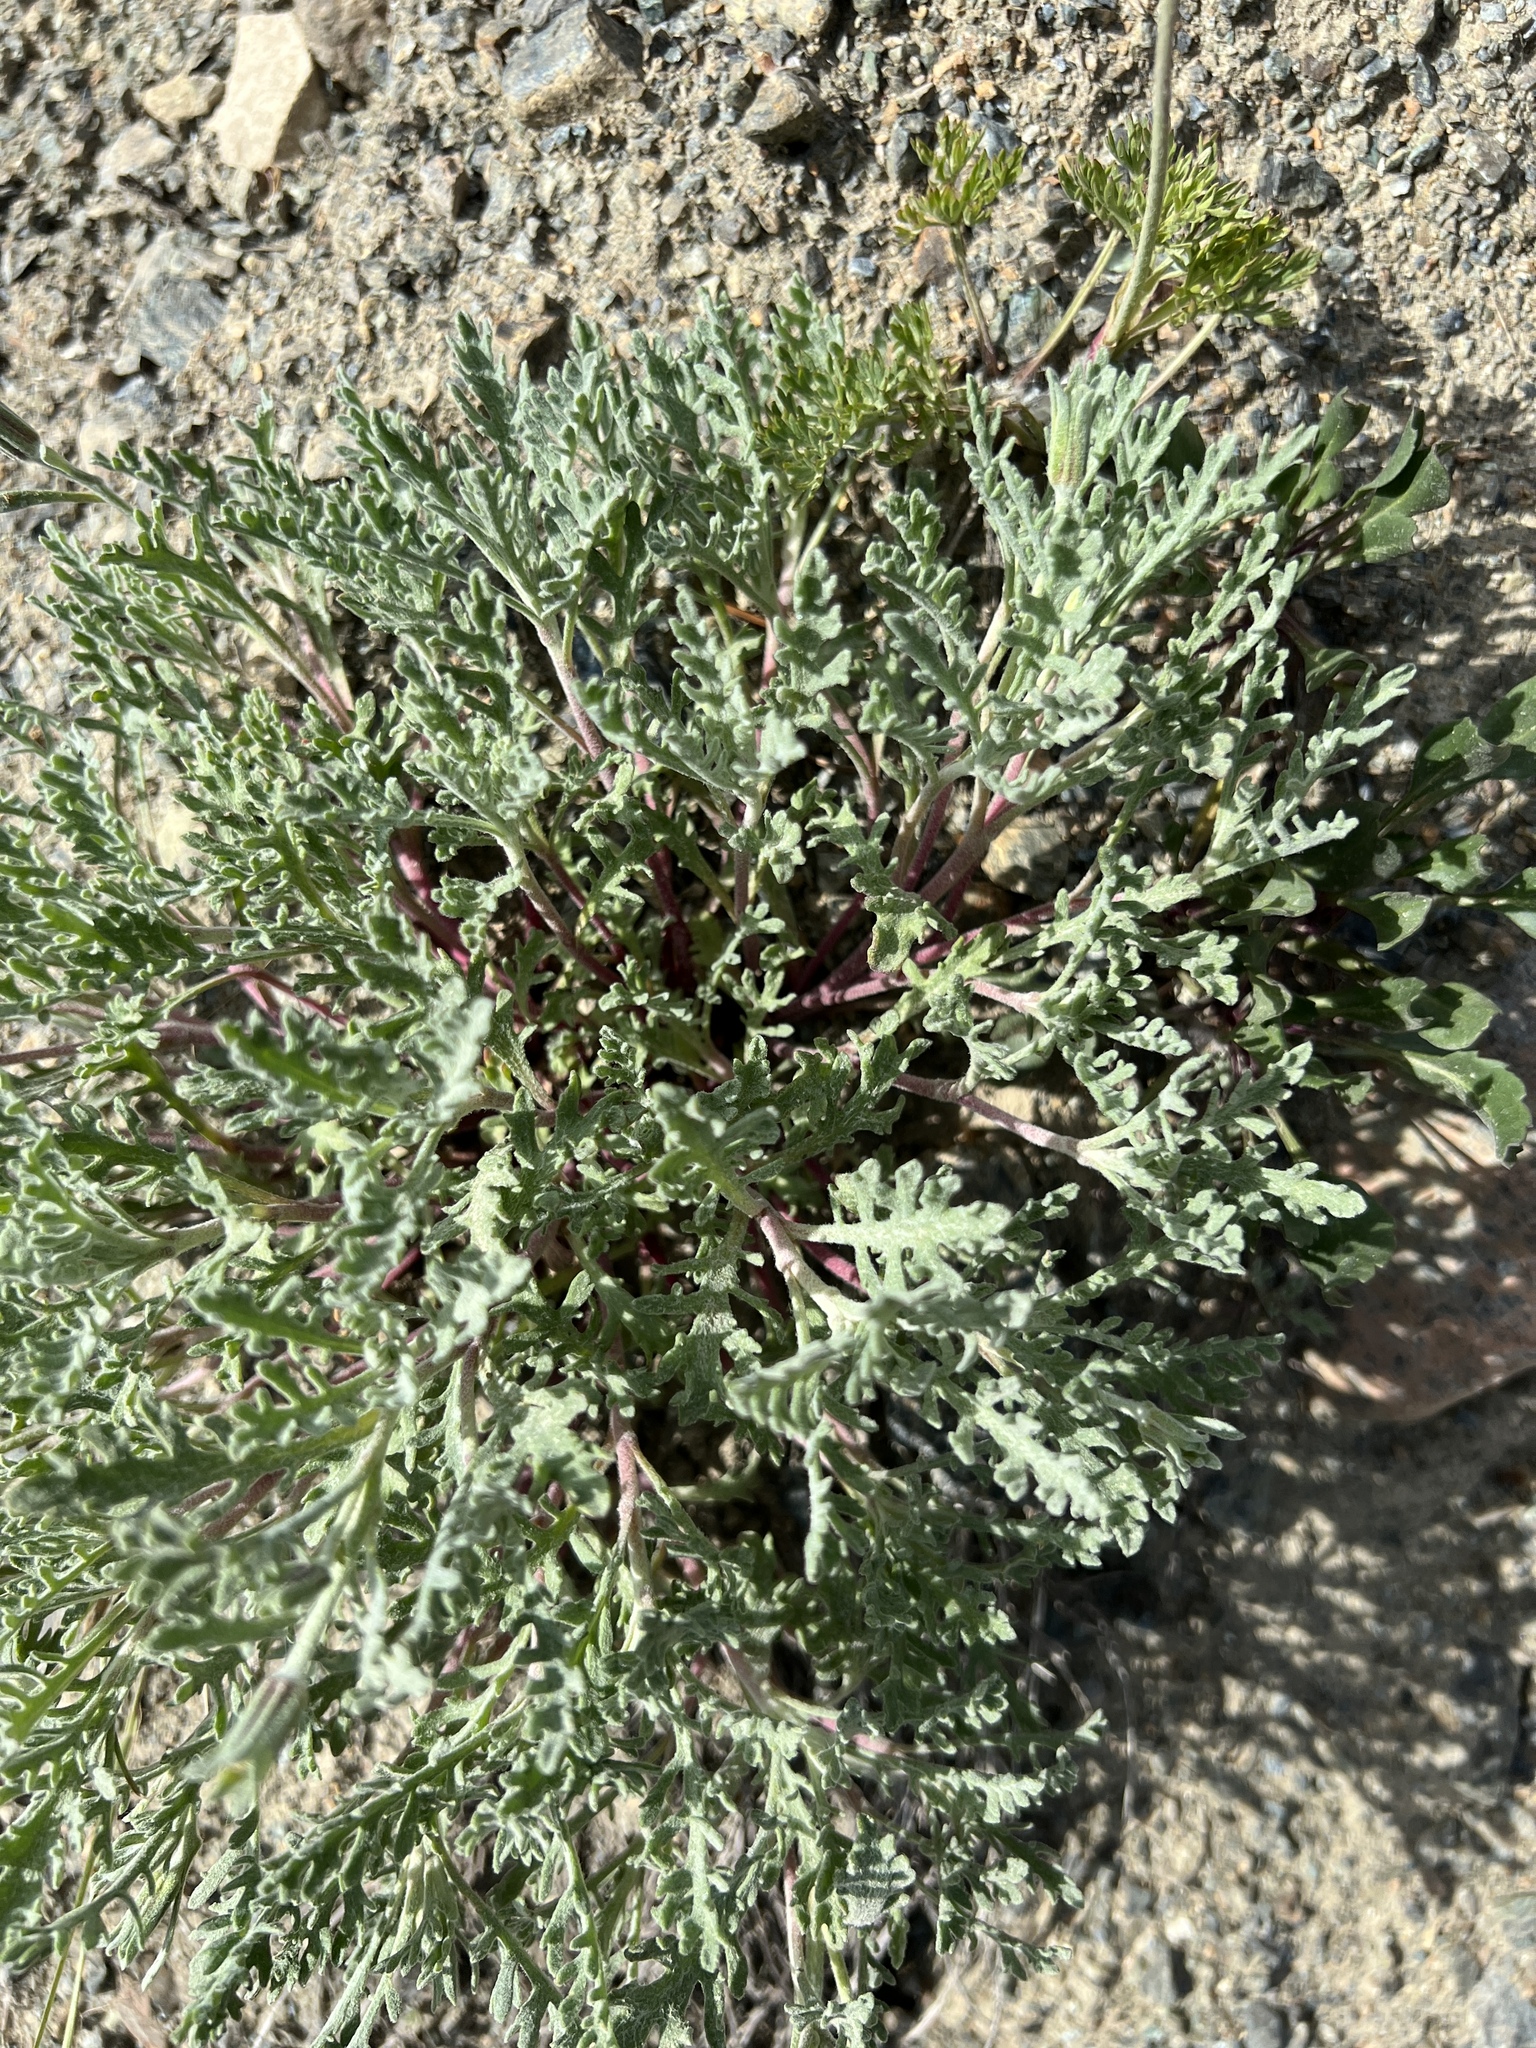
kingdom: Plantae
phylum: Tracheophyta
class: Magnoliopsida
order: Asterales
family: Asteraceae
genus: Chaenactis
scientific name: Chaenactis thompsonii
